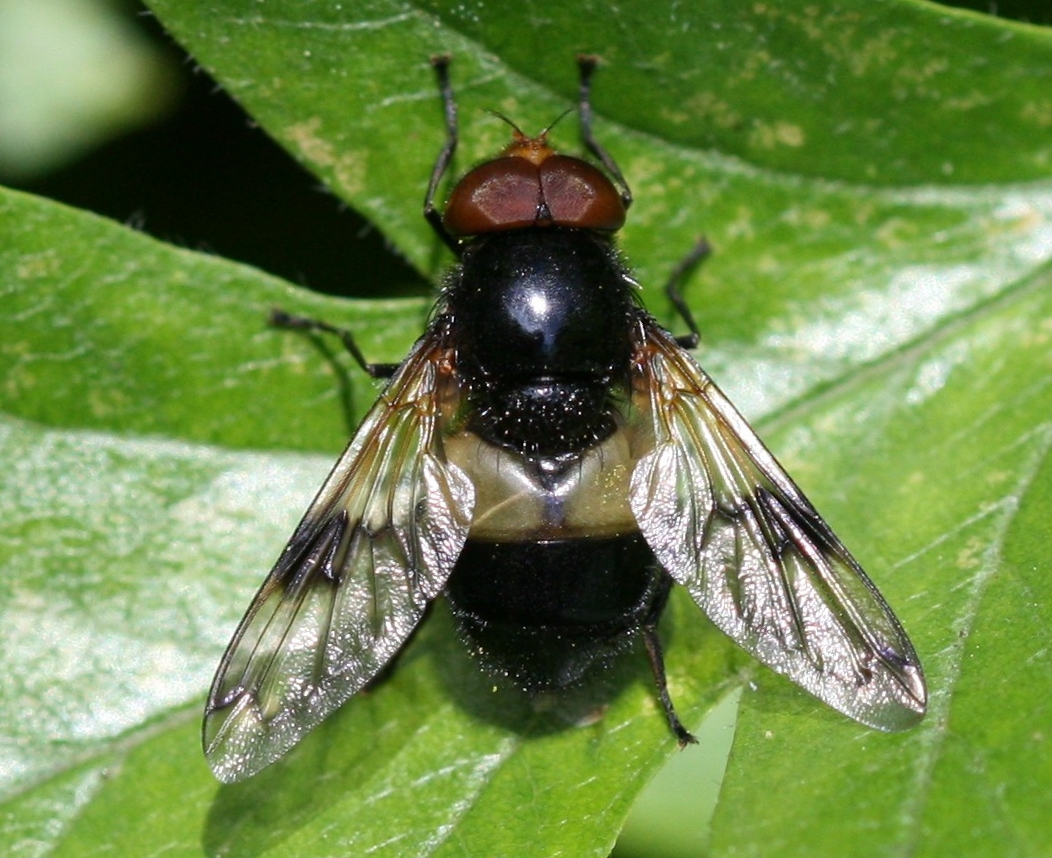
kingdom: Animalia
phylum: Arthropoda
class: Insecta
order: Diptera
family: Syrphidae
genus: Volucella
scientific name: Volucella pellucens
